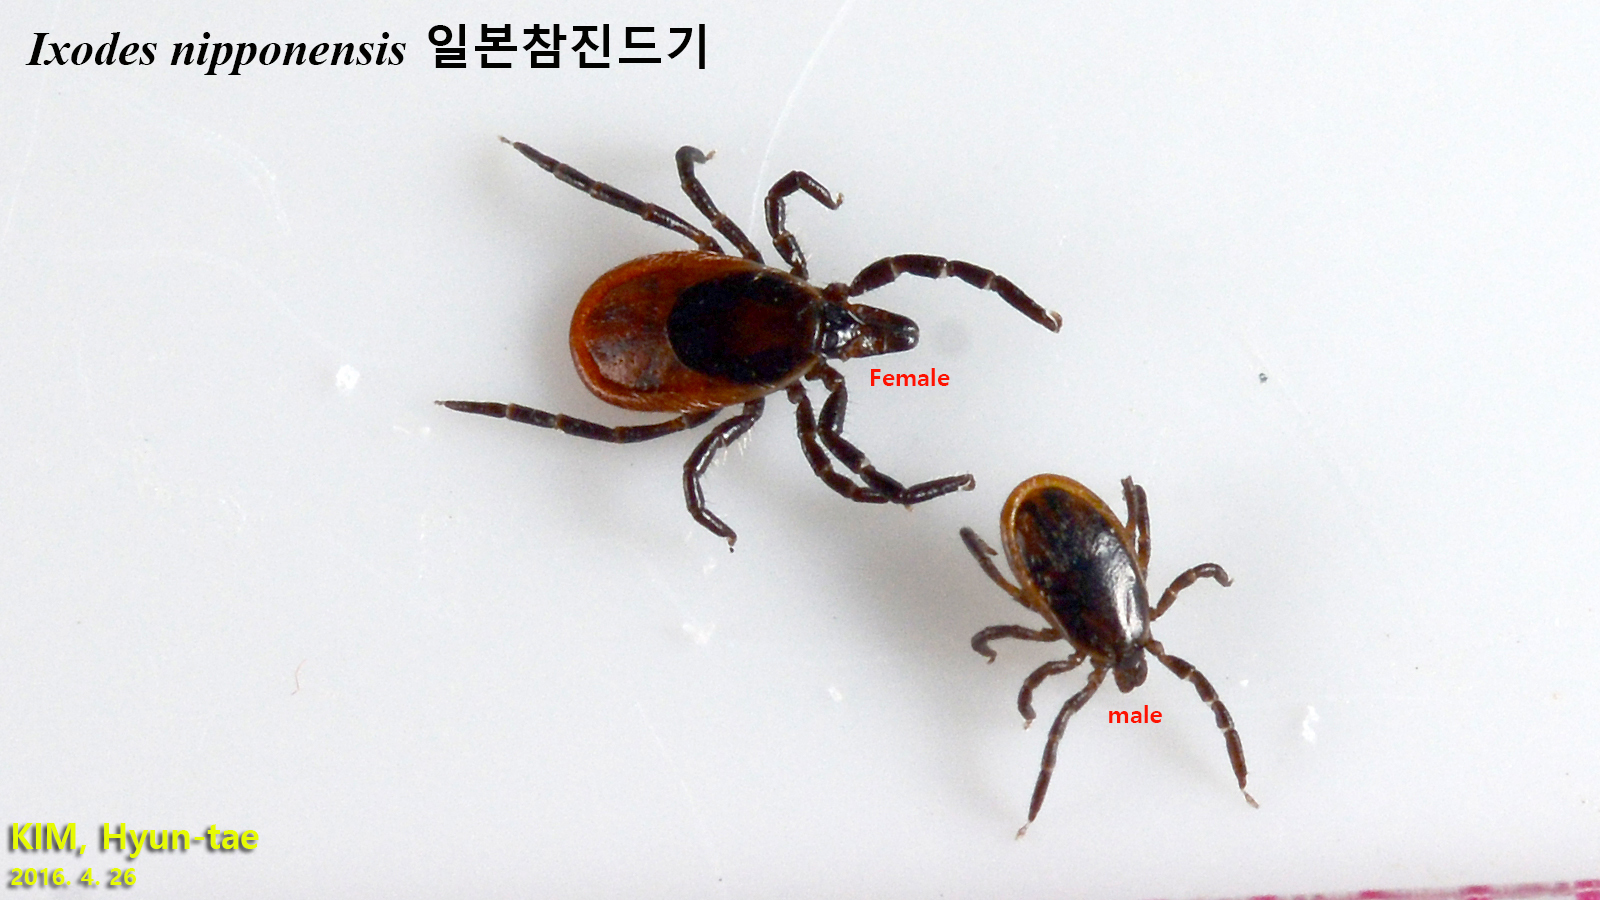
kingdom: Animalia
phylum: Arthropoda
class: Arachnida
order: Ixodida
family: Ixodidae
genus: Ixodes
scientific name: Ixodes nipponensis
